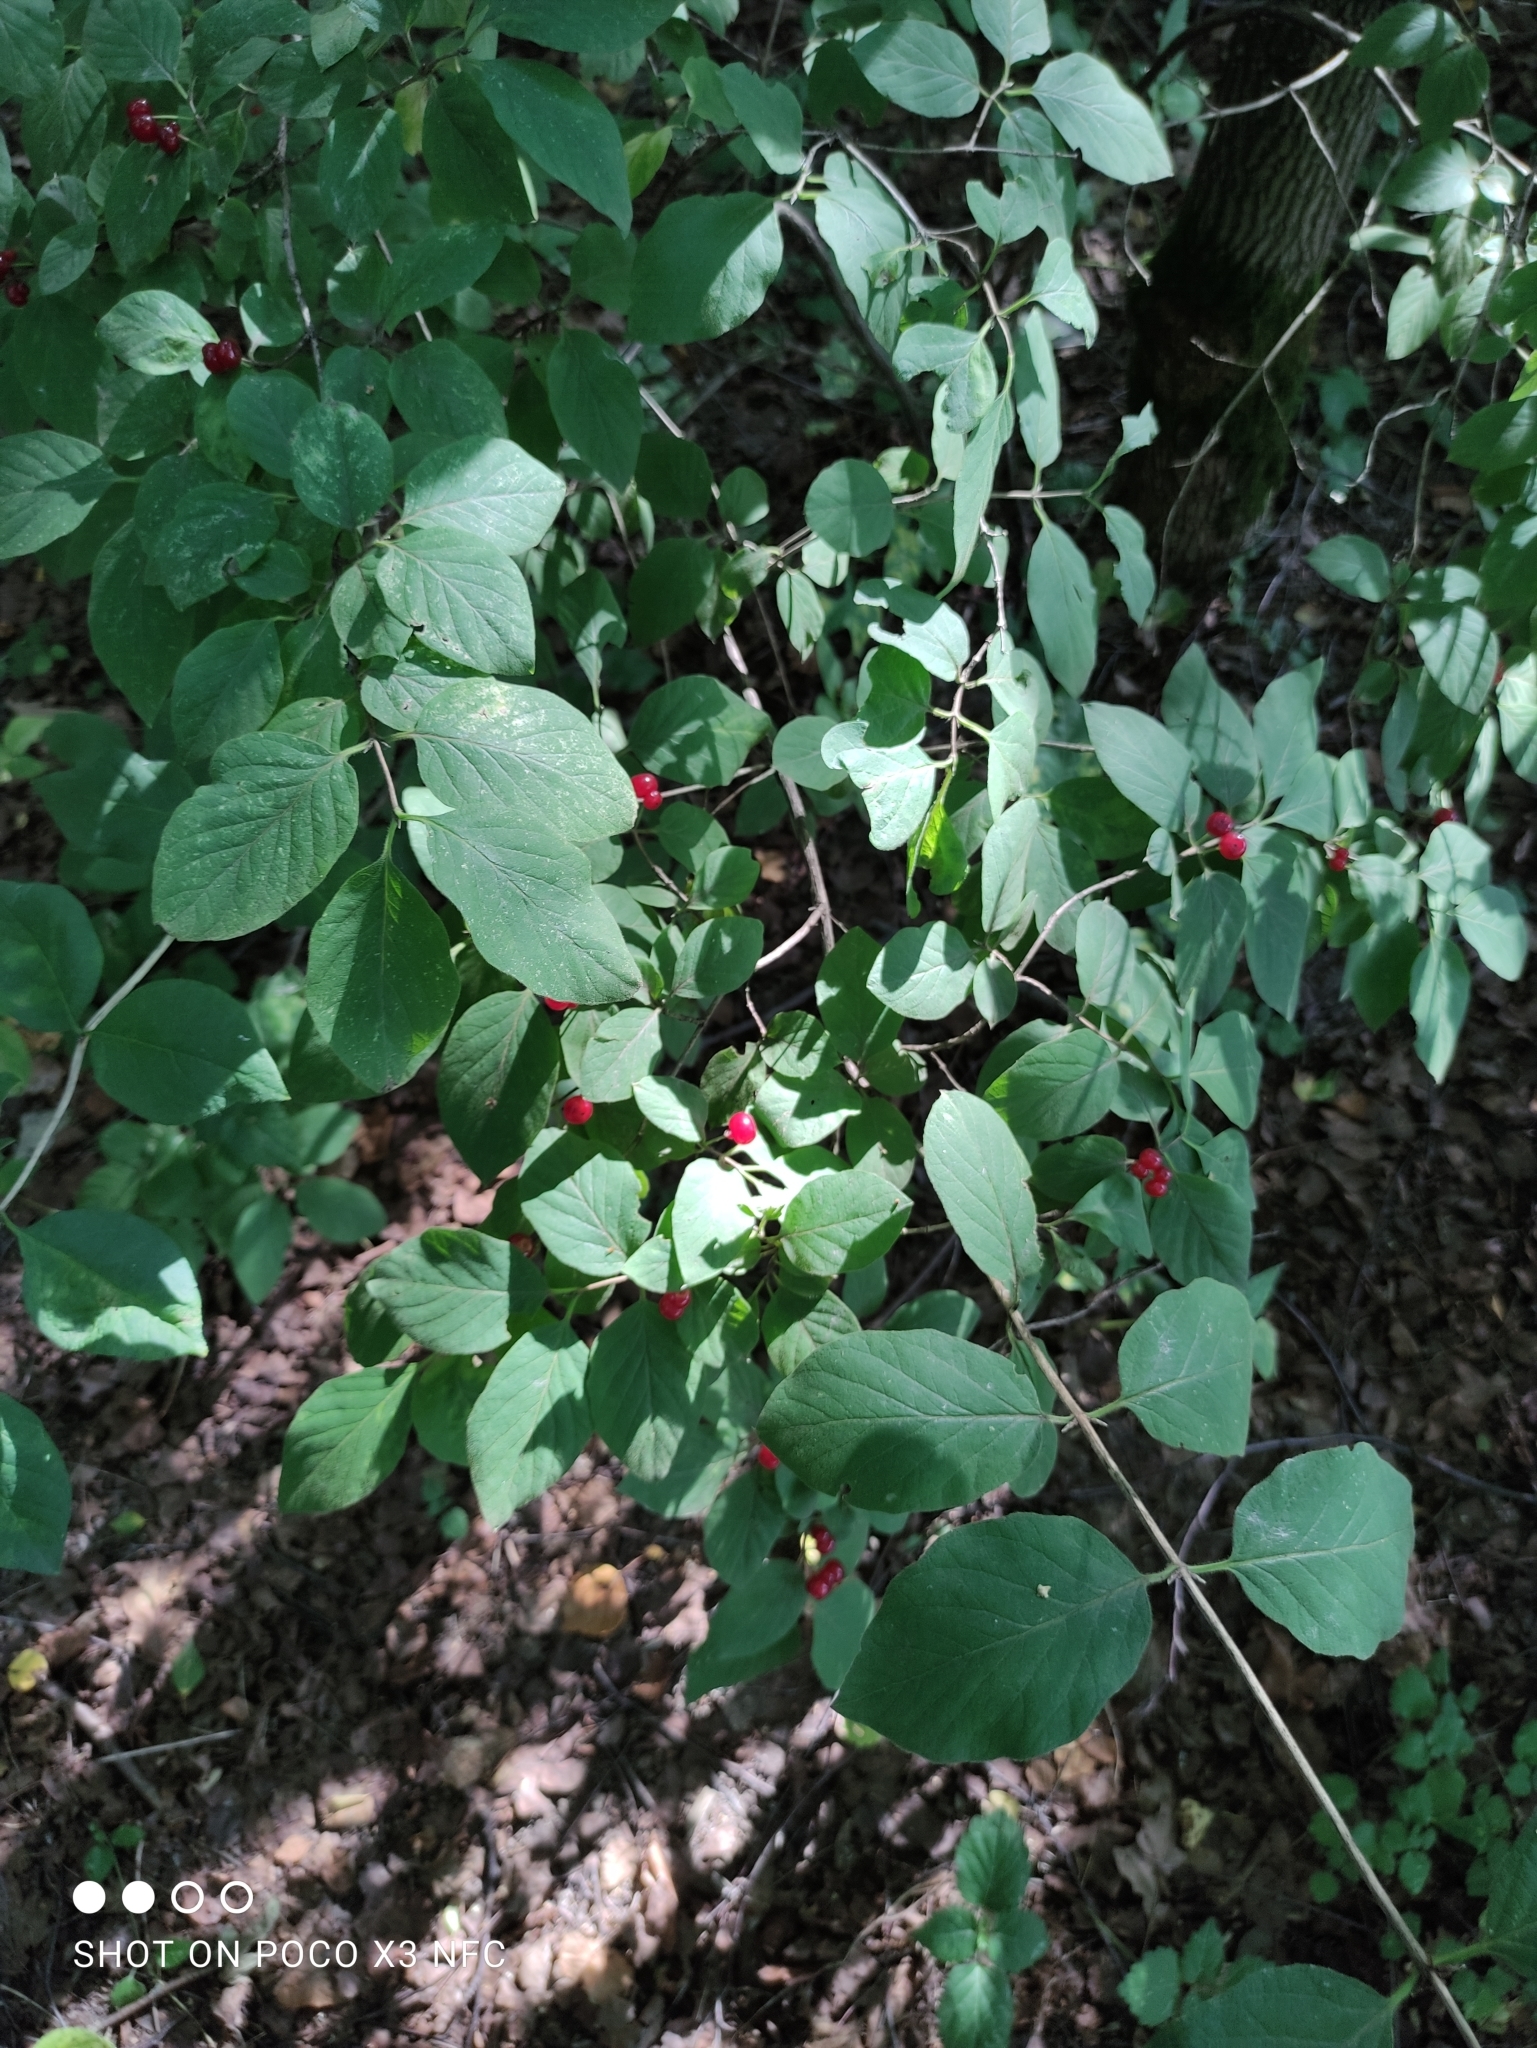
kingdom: Plantae
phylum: Tracheophyta
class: Magnoliopsida
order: Dipsacales
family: Caprifoliaceae
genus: Lonicera
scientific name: Lonicera xylosteum
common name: Fly honeysuckle
